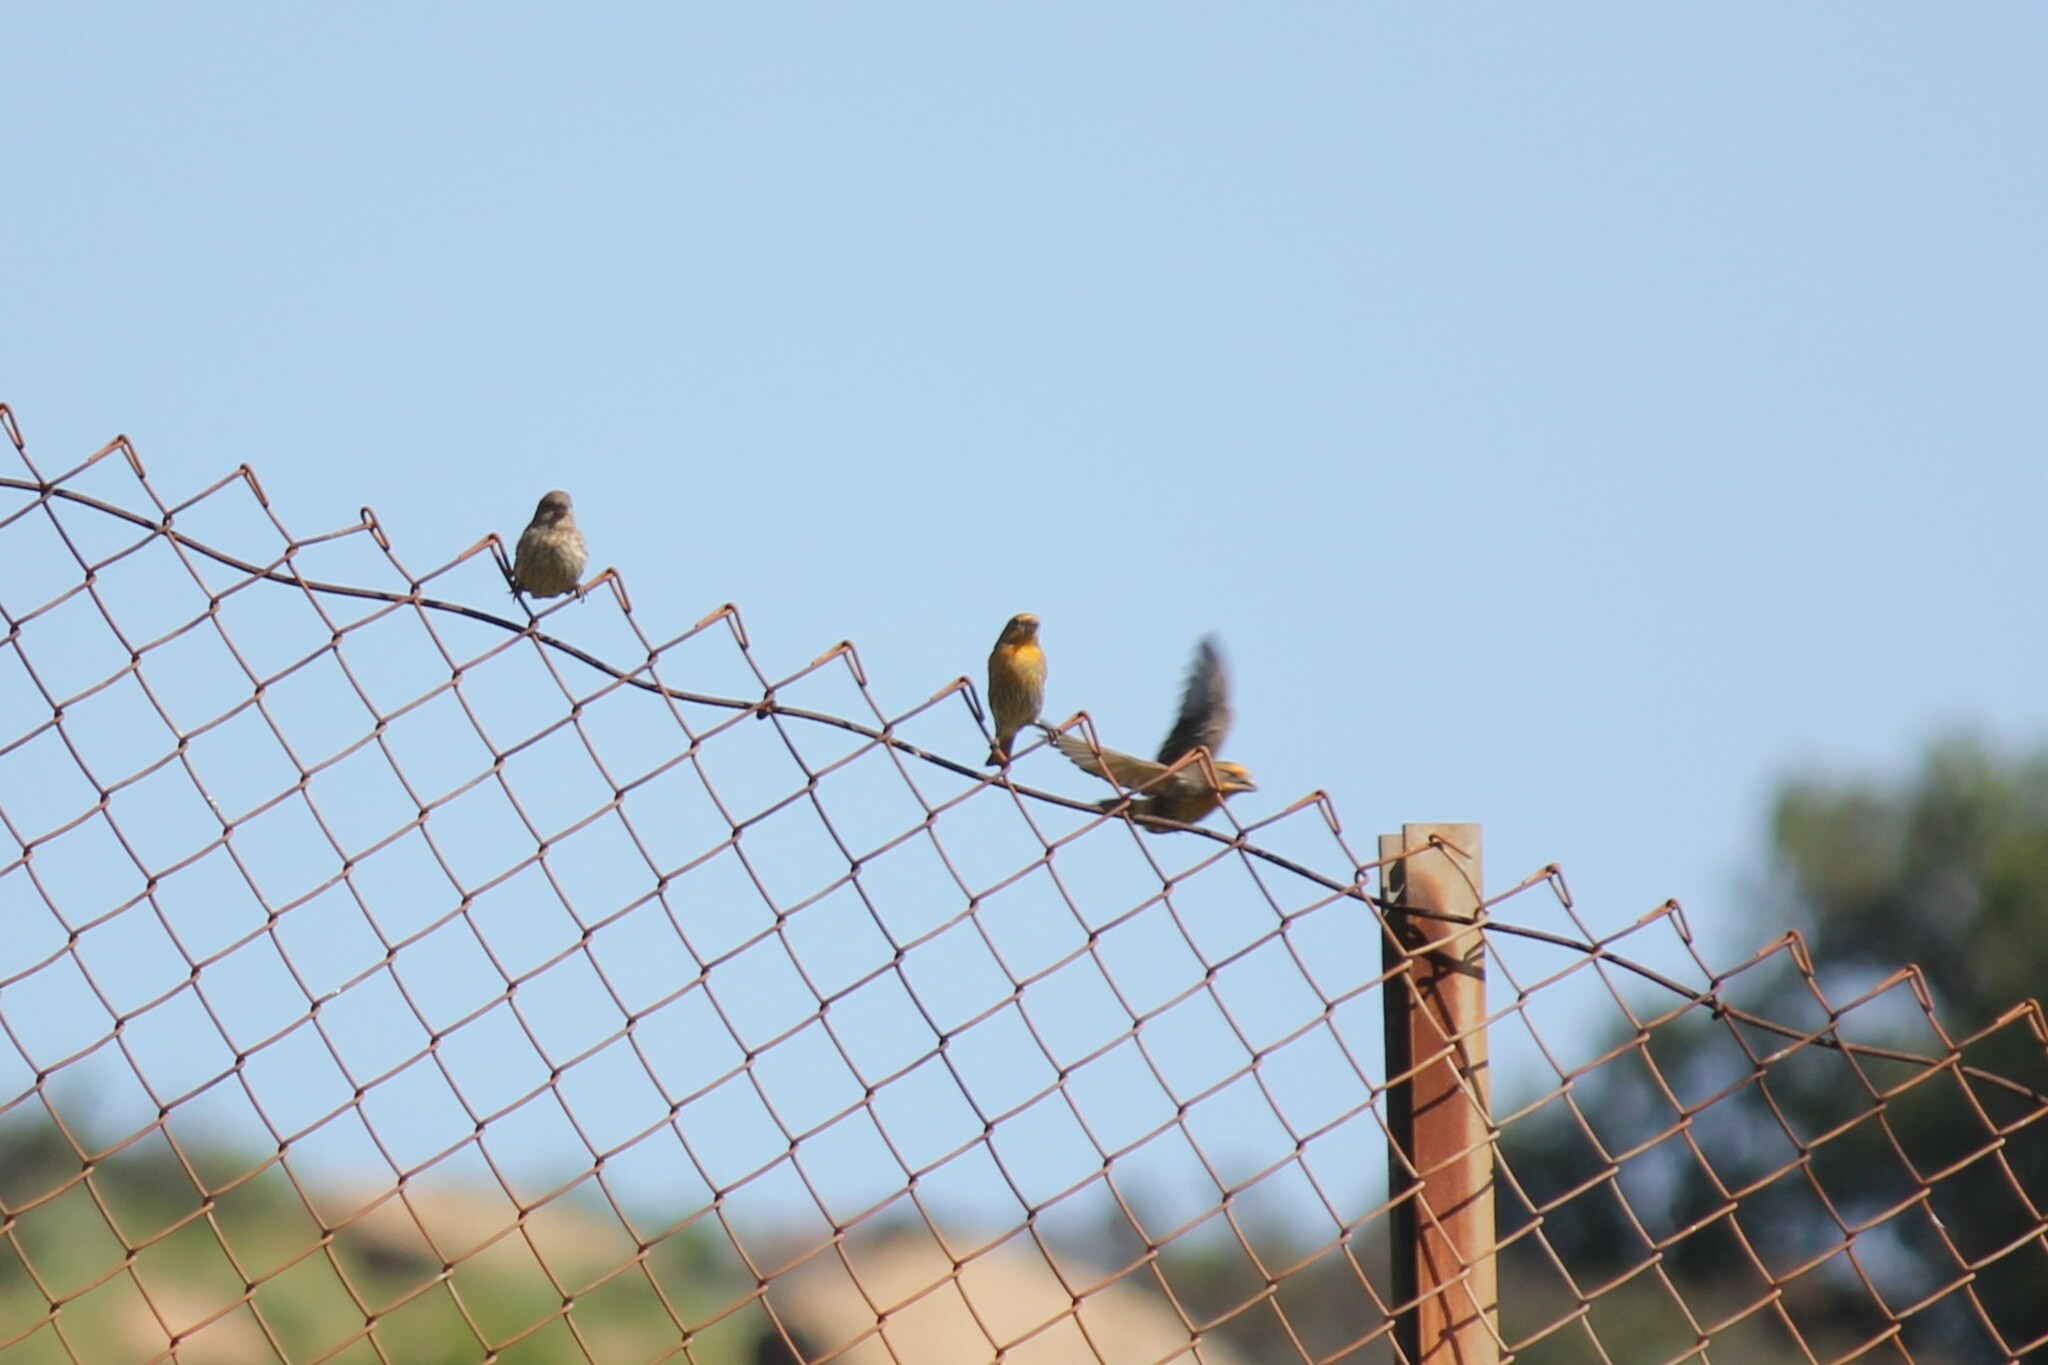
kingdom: Animalia
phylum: Chordata
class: Aves
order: Passeriformes
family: Fringillidae
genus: Haemorhous
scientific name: Haemorhous mexicanus
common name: House finch
